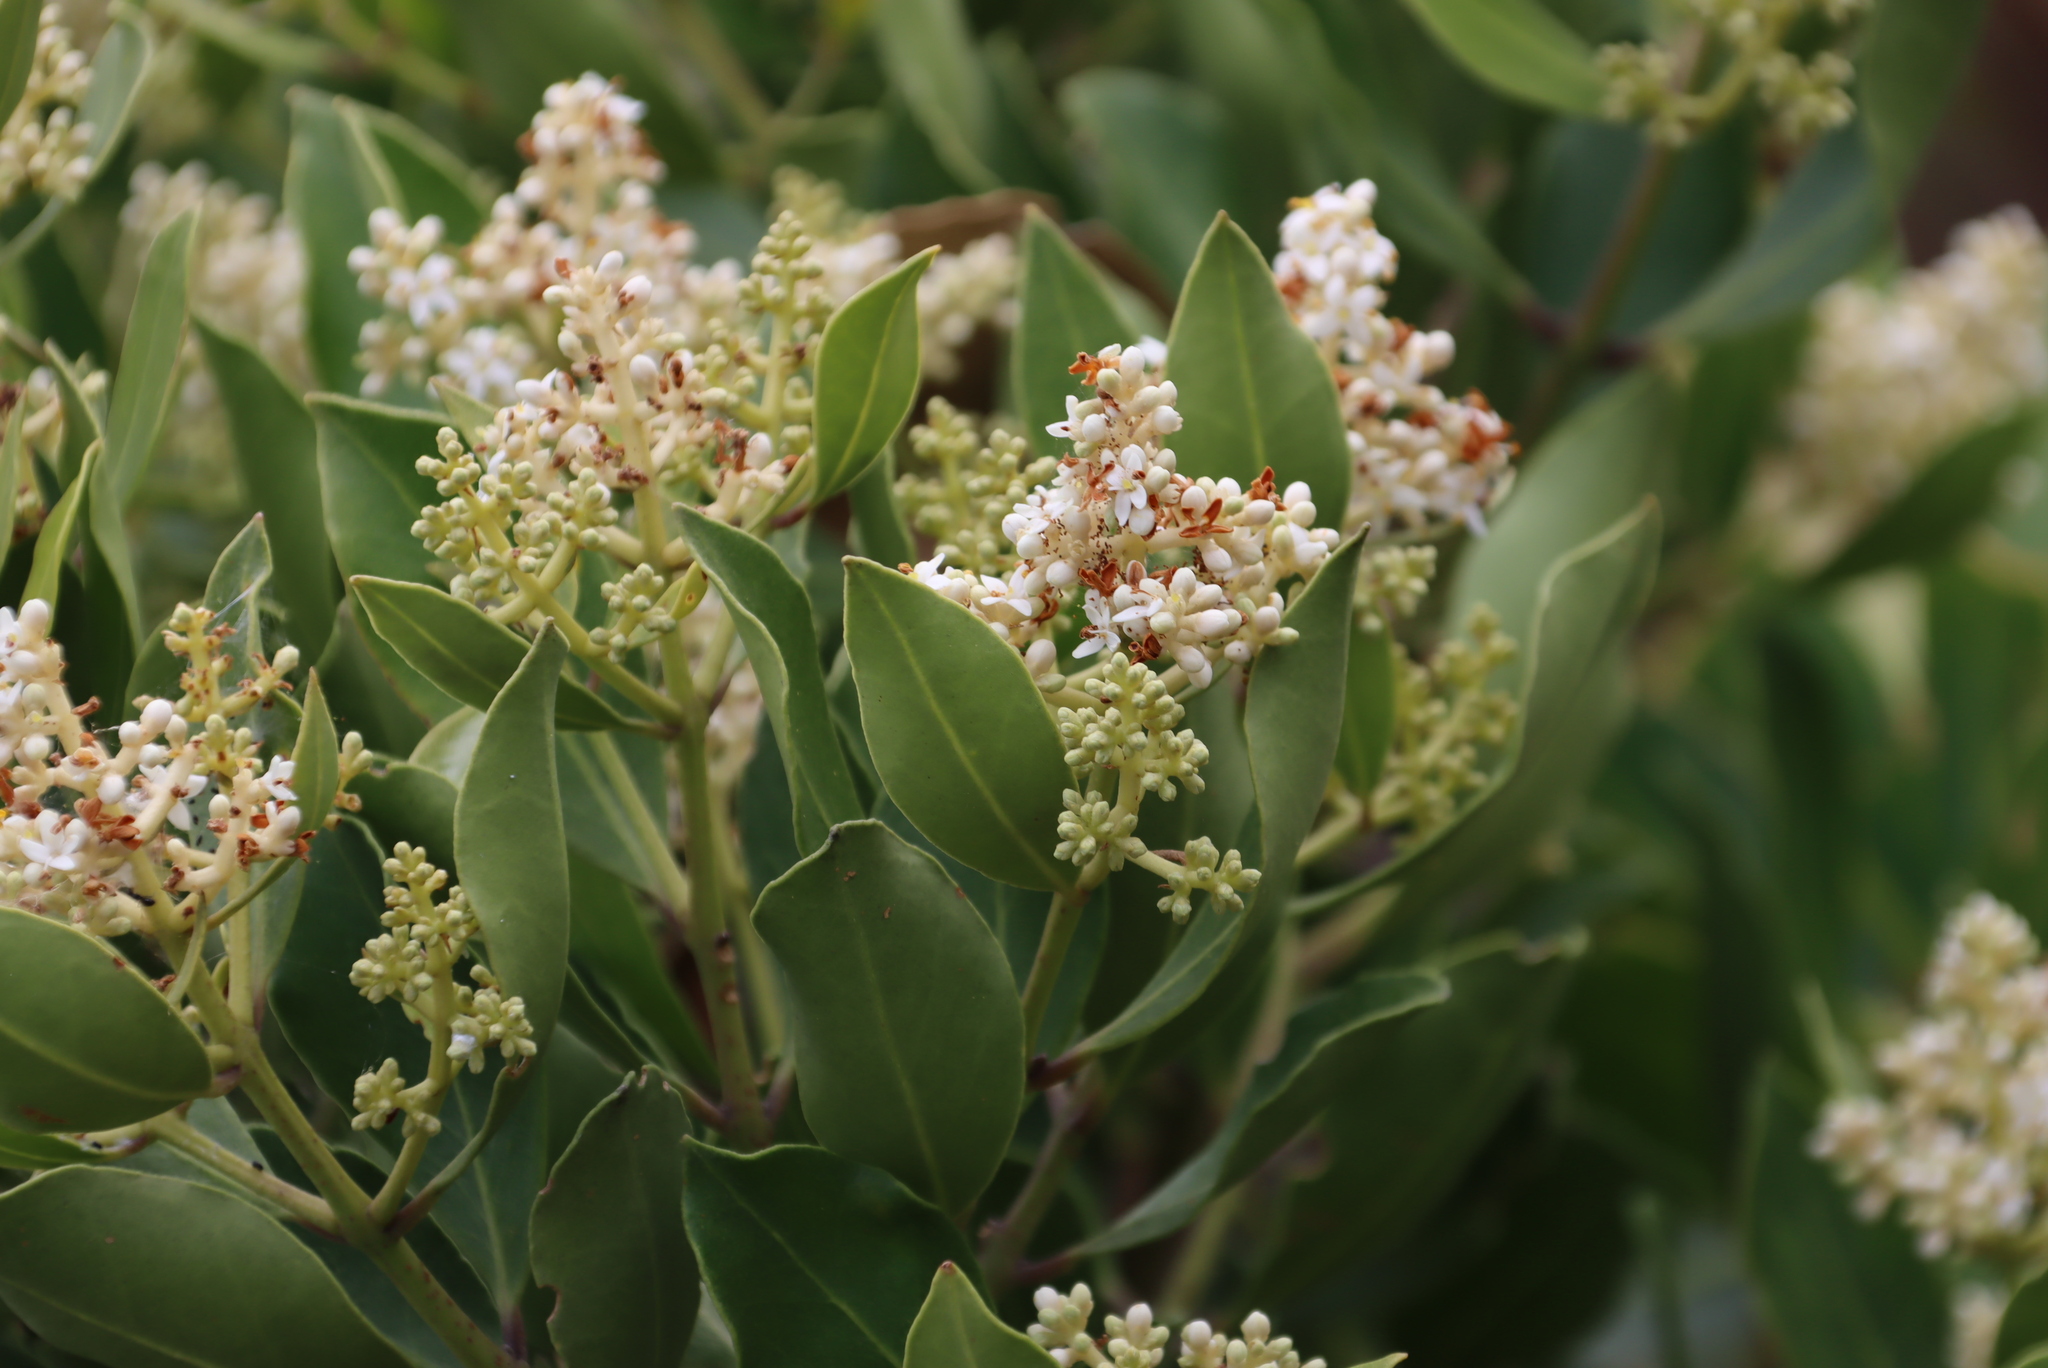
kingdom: Plantae
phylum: Tracheophyta
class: Magnoliopsida
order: Lamiales
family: Oleaceae
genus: Olea
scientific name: Olea capensis
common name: Black ironwood
